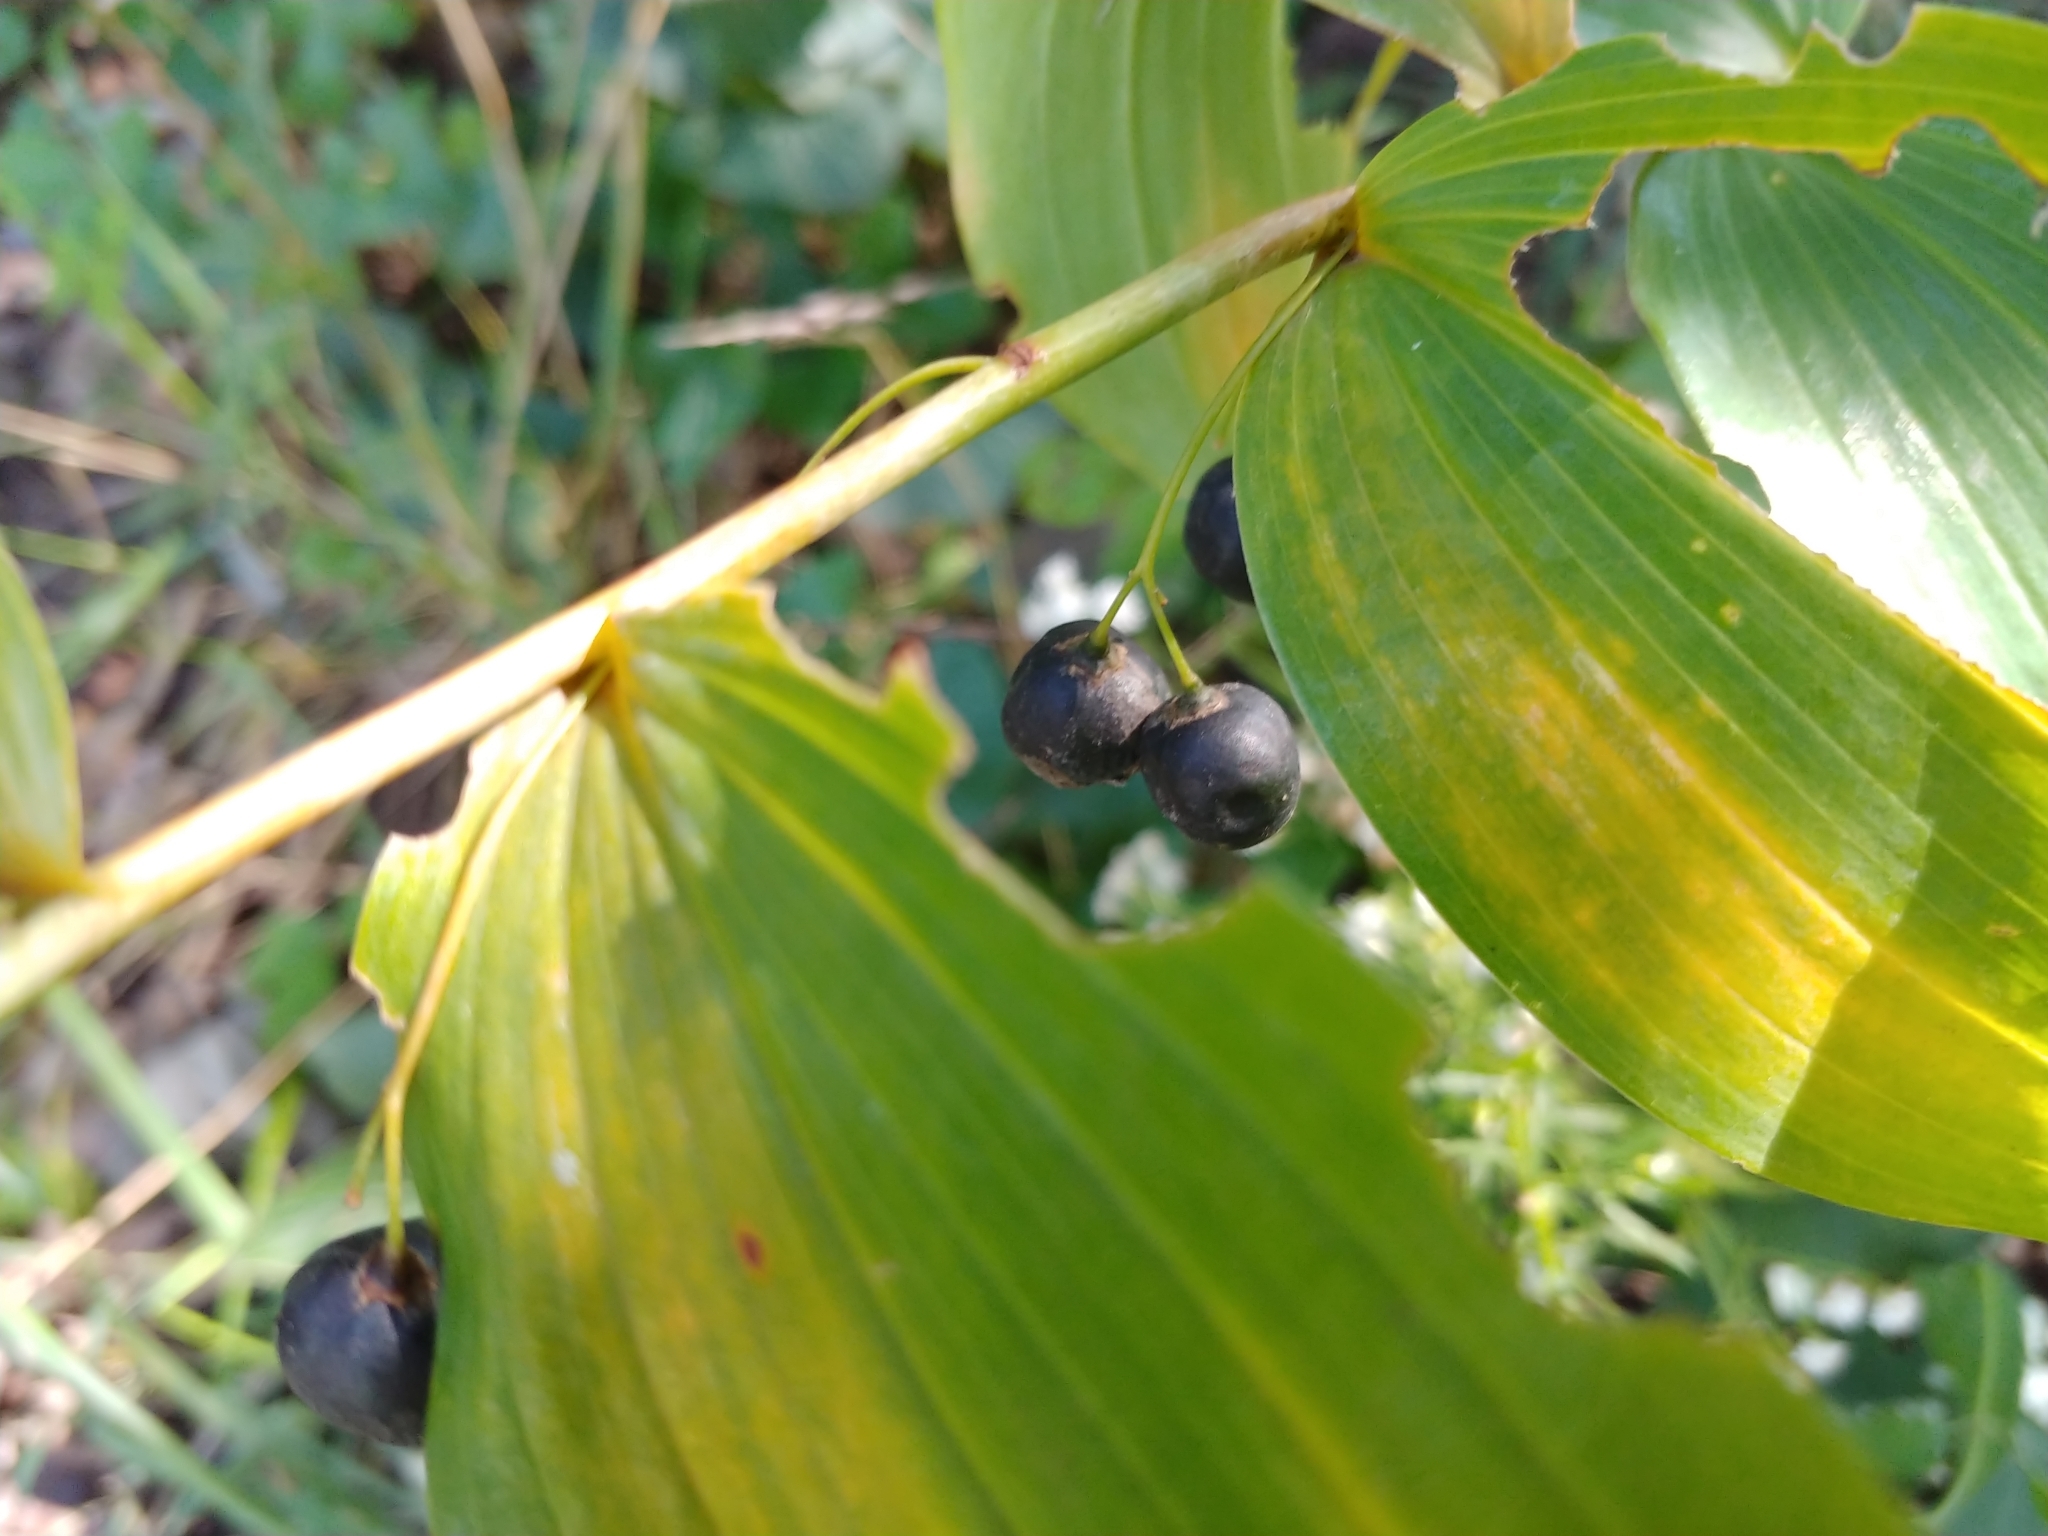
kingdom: Plantae
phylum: Tracheophyta
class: Liliopsida
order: Asparagales
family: Asparagaceae
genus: Polygonatum
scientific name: Polygonatum biflorum
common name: American solomon's-seal
